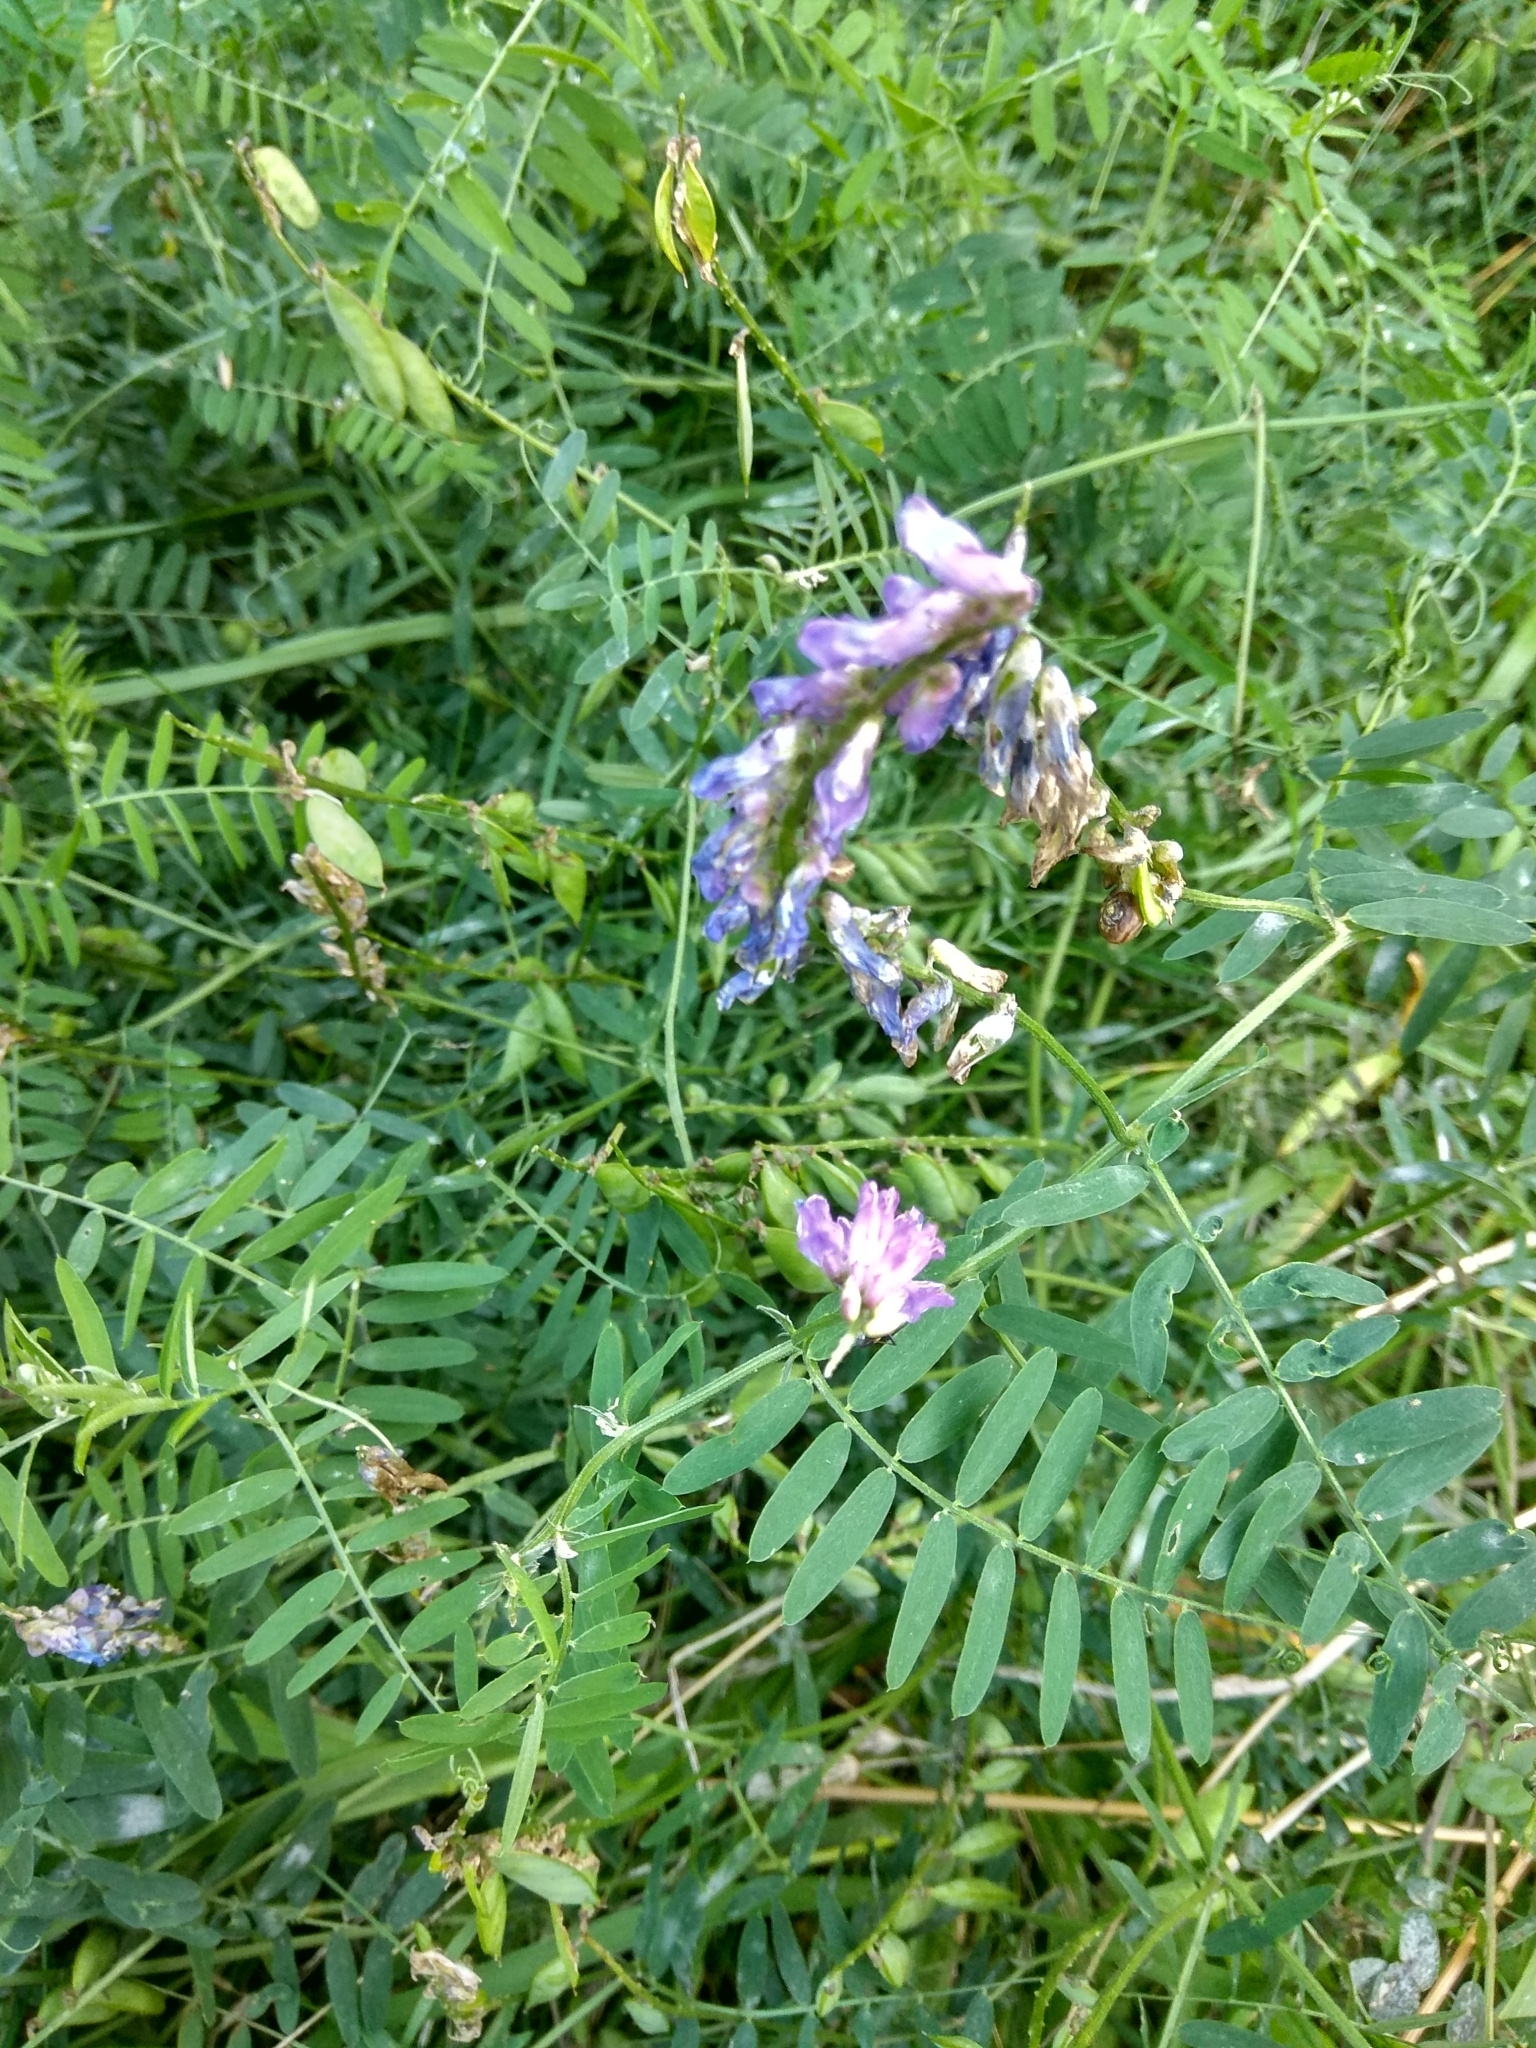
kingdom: Plantae
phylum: Tracheophyta
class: Magnoliopsida
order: Fabales
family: Fabaceae
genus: Vicia
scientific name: Vicia cracca
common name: Bird vetch
